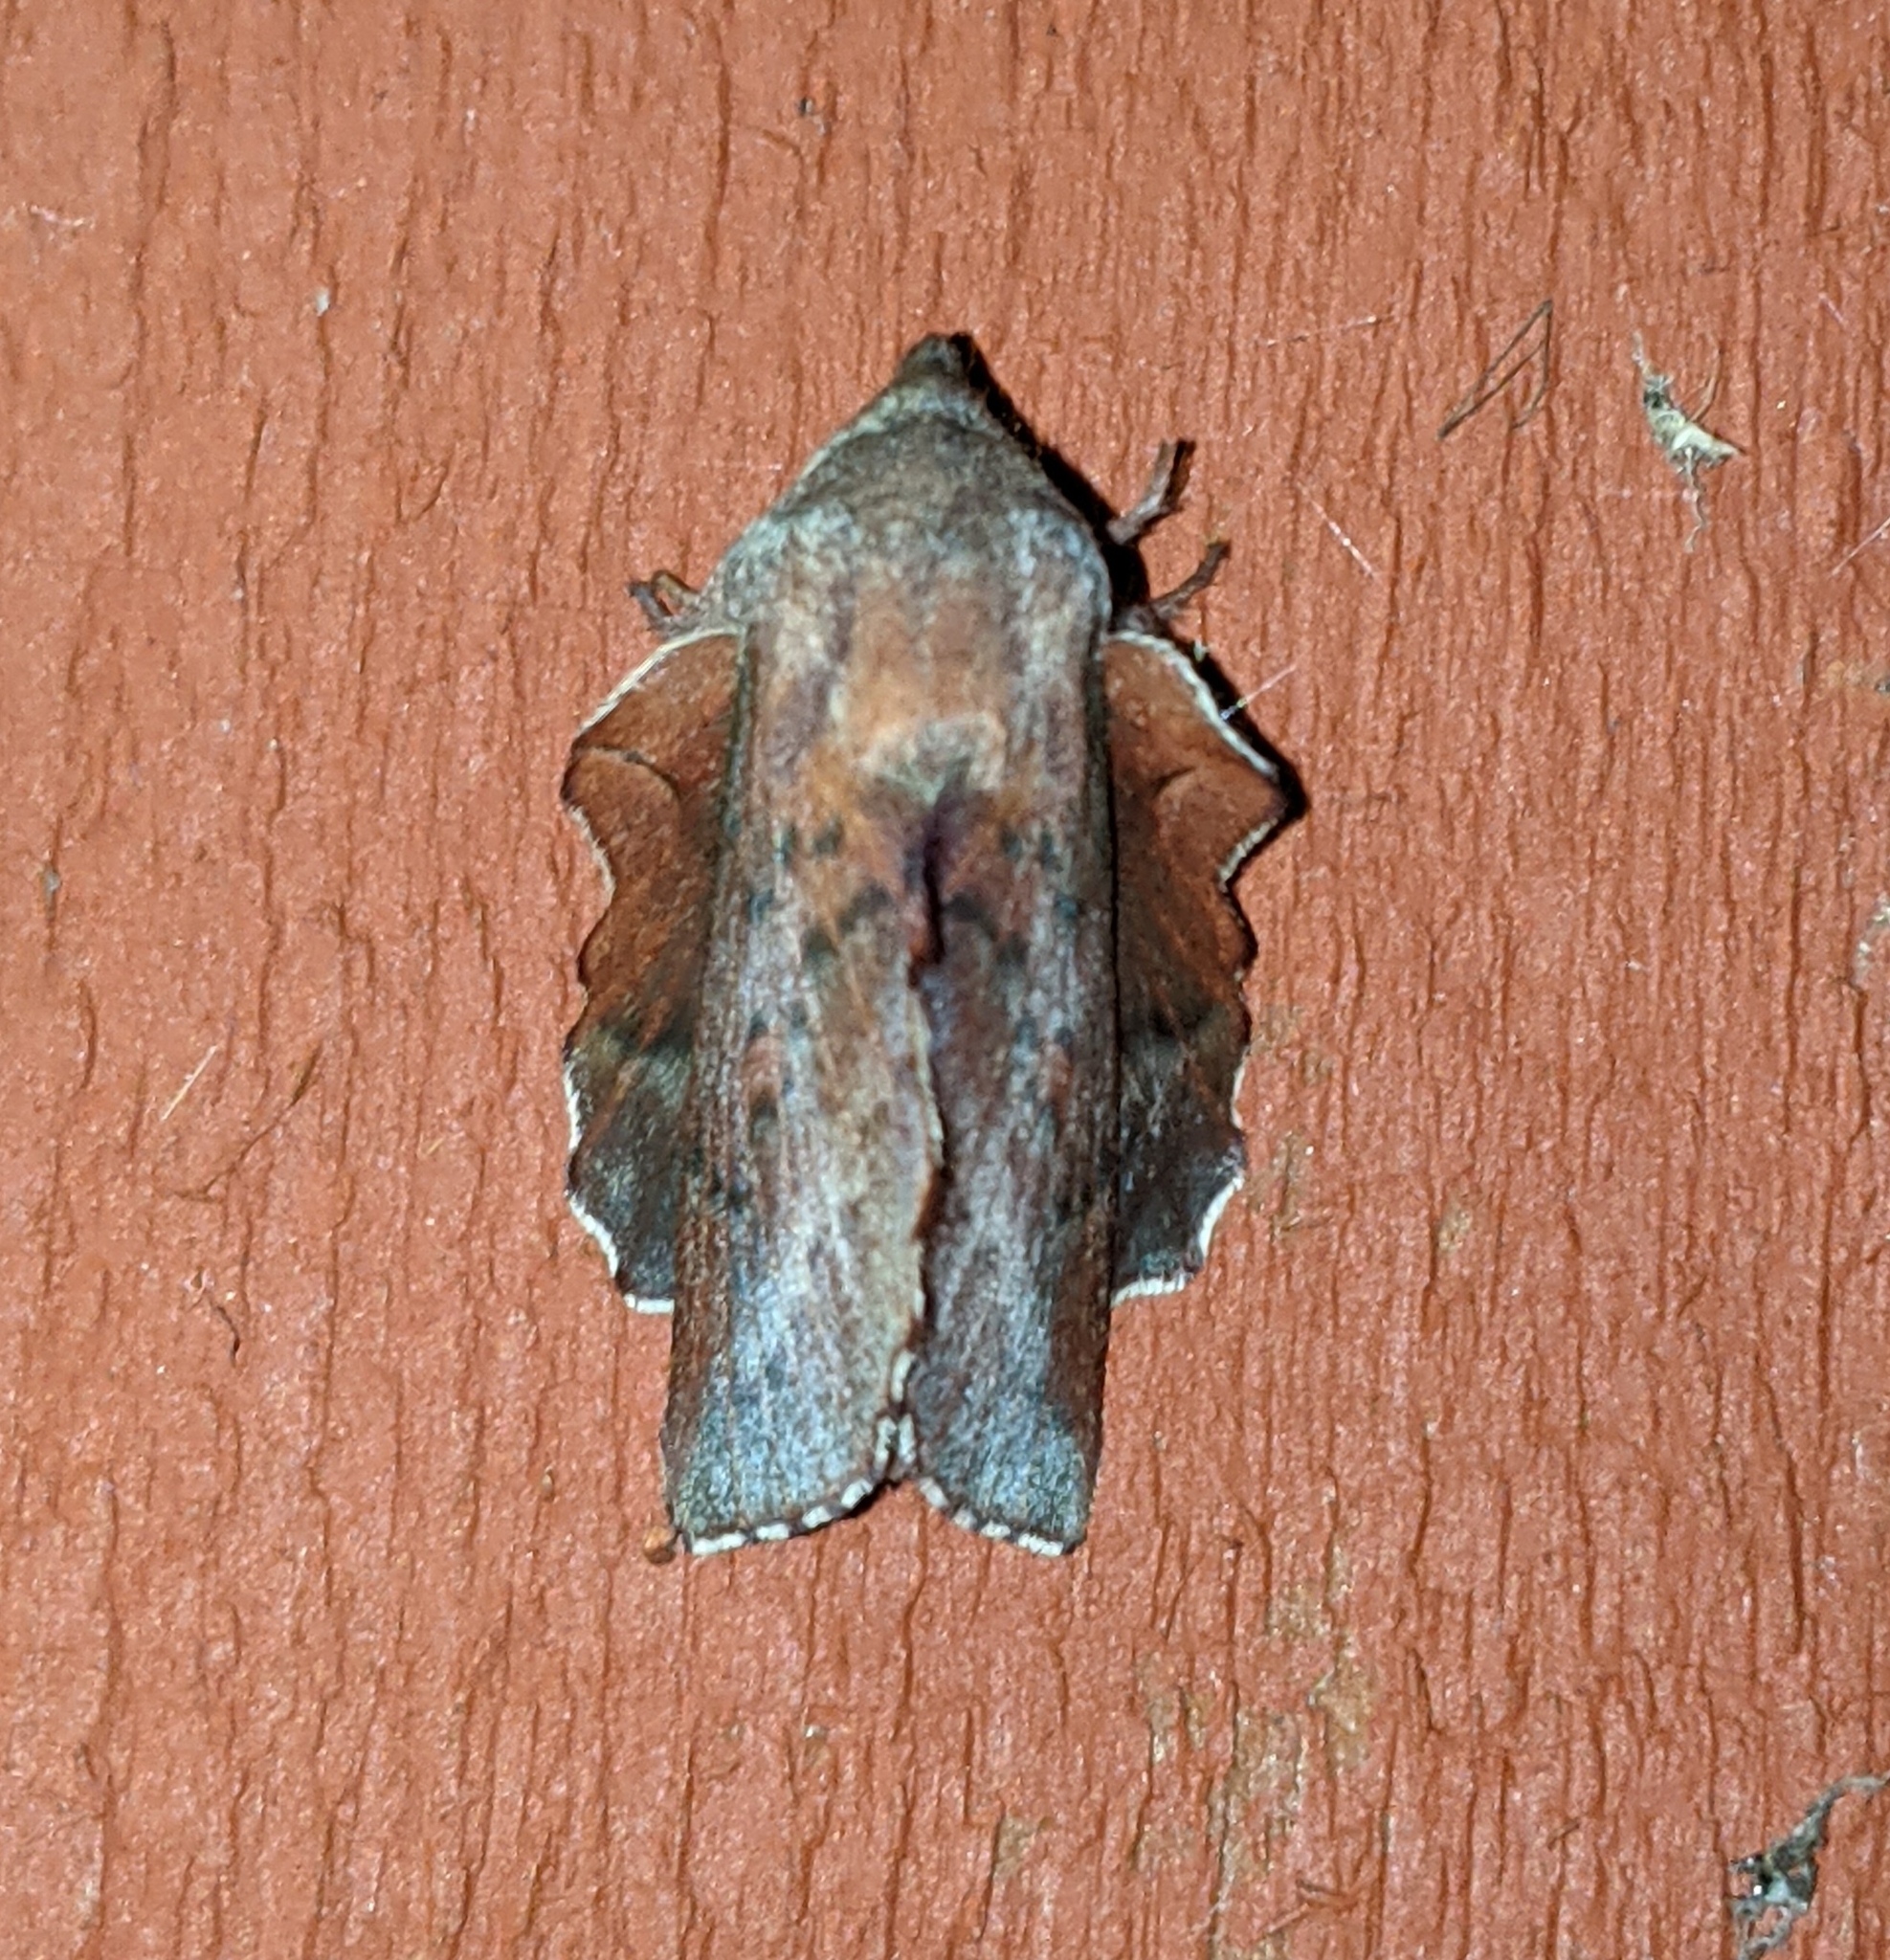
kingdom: Animalia
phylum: Arthropoda
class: Insecta
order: Lepidoptera
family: Lasiocampidae
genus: Phyllodesma
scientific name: Phyllodesma americana
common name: American lappet moth
